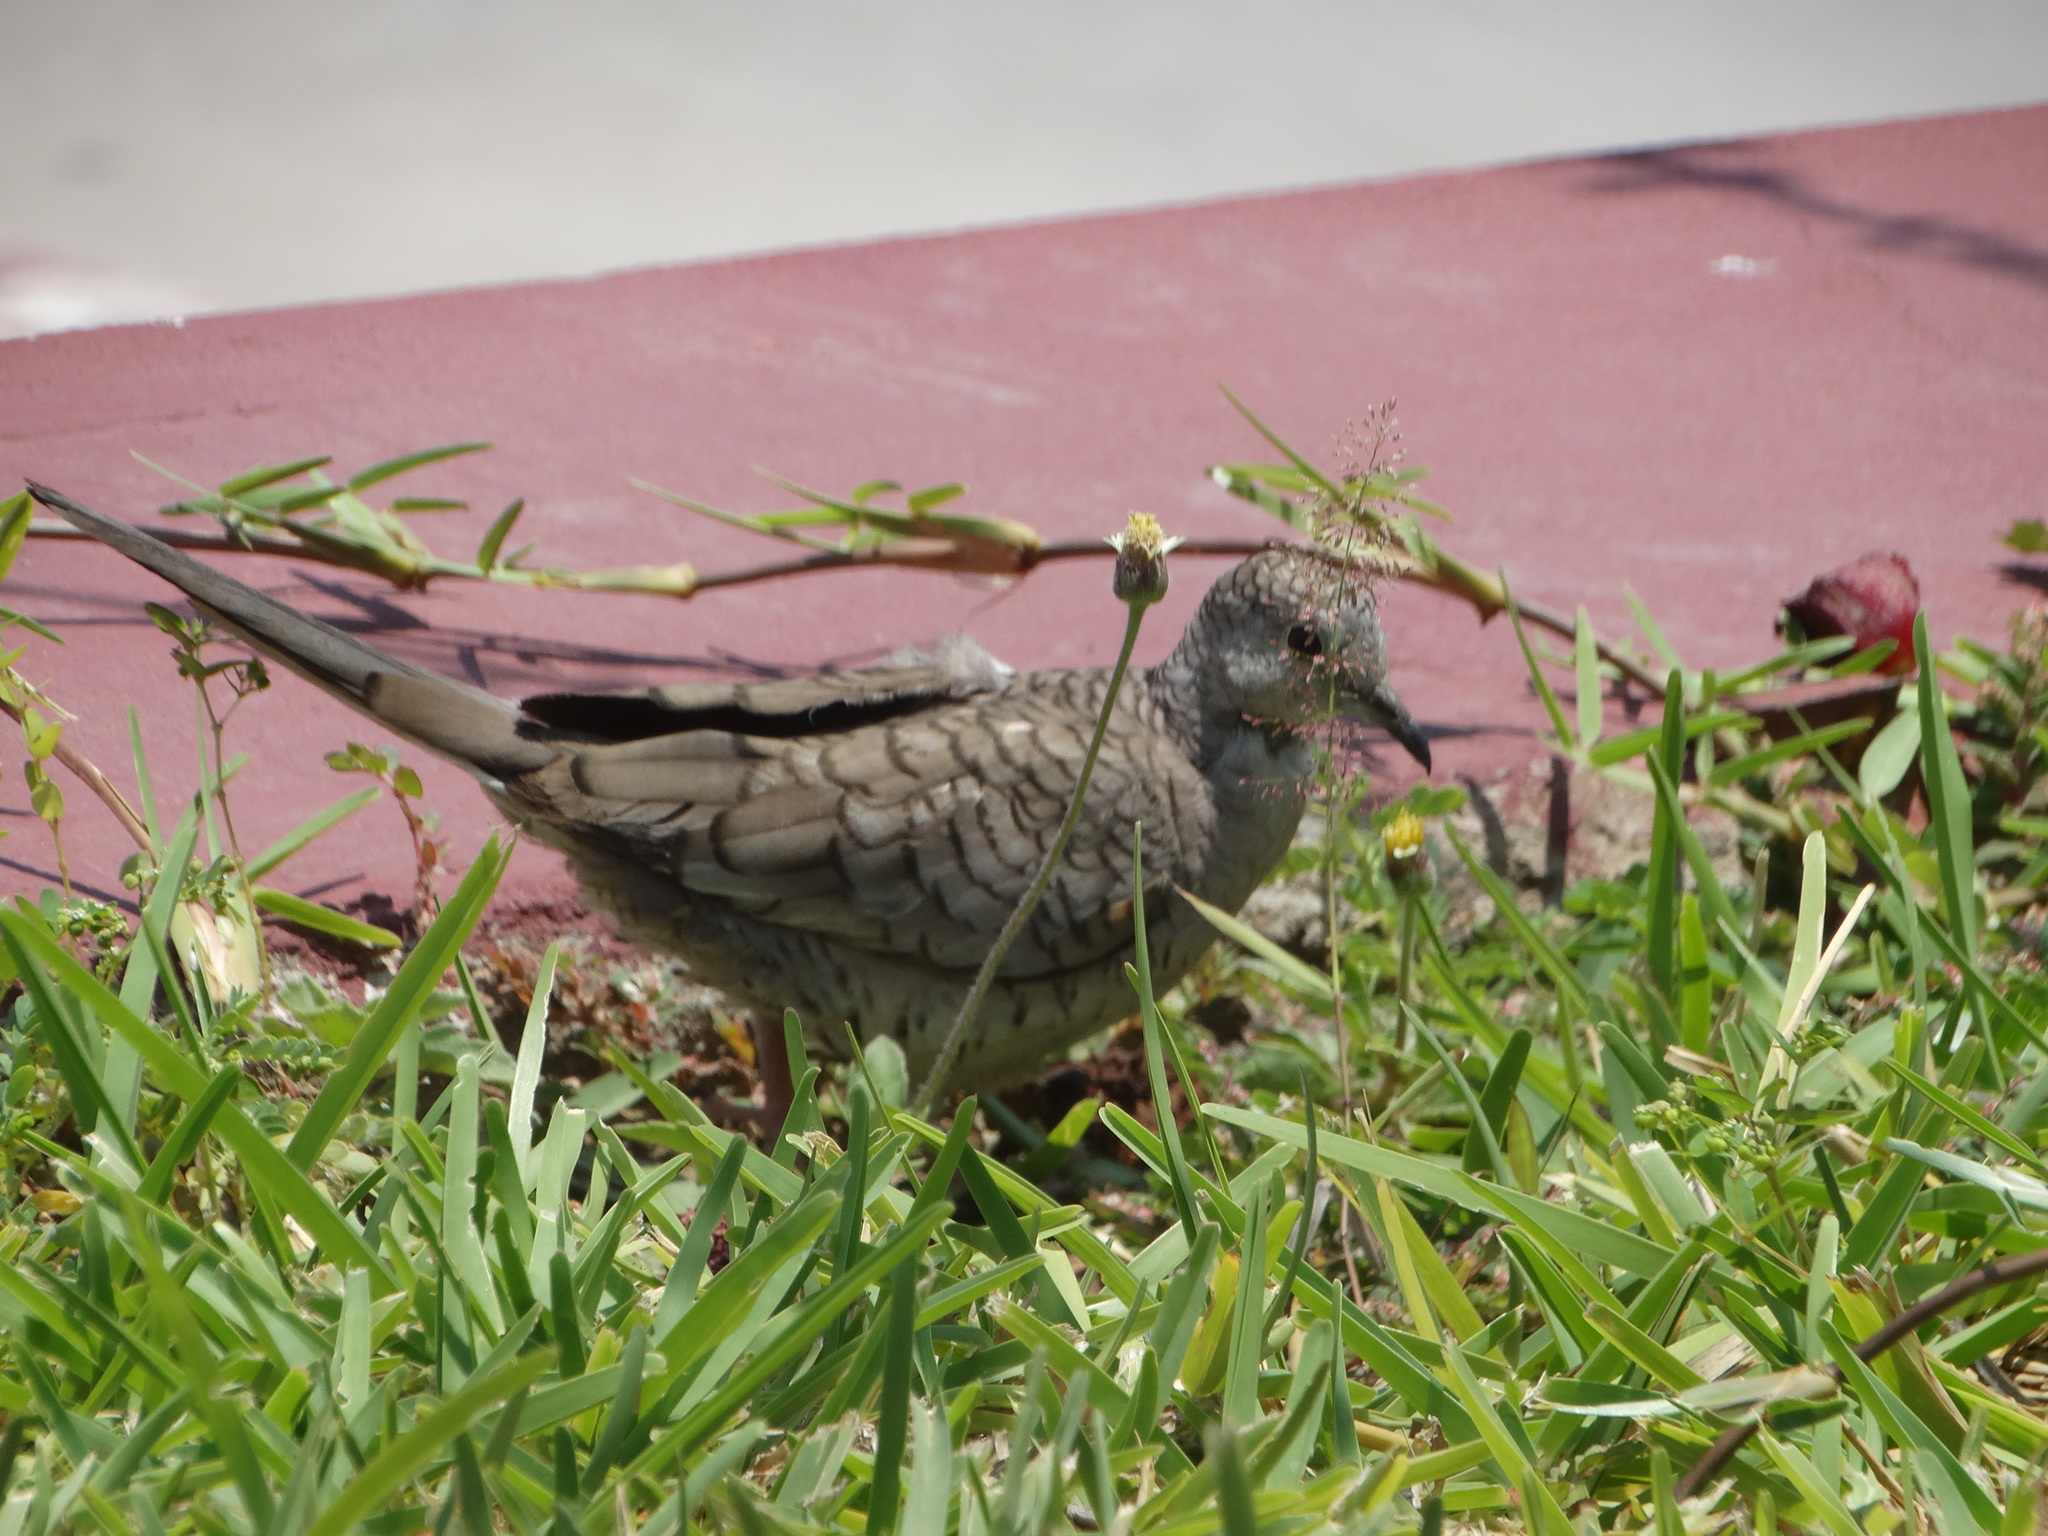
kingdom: Animalia
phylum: Chordata
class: Aves
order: Columbiformes
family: Columbidae
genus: Columbina
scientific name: Columbina inca
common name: Inca dove
